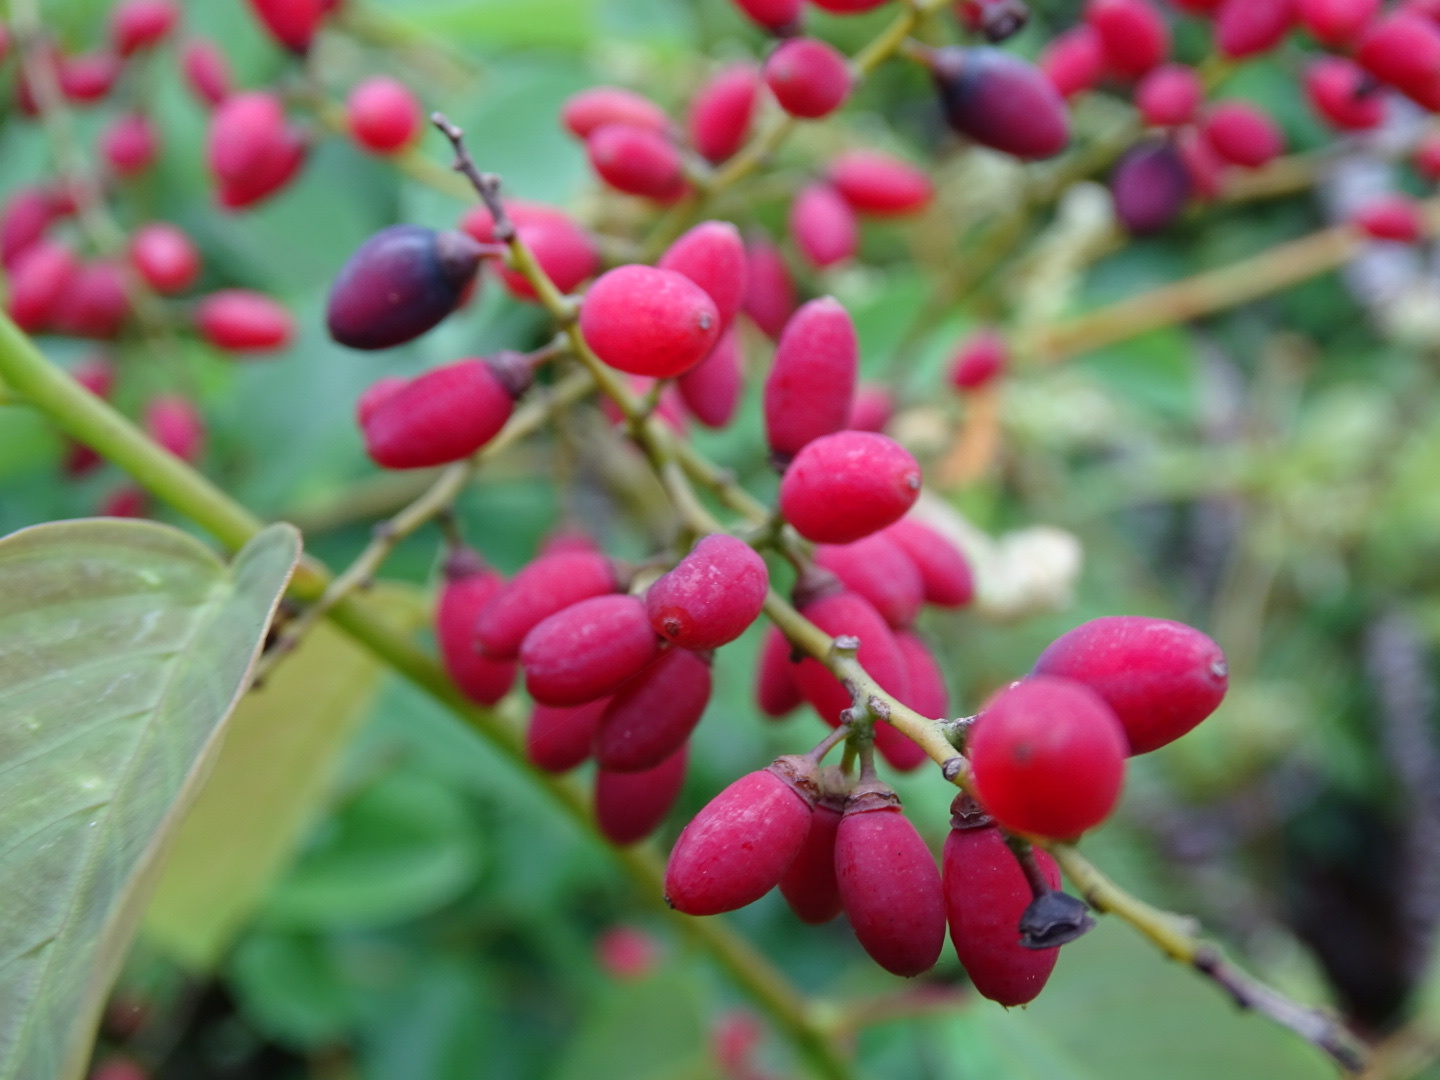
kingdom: Plantae
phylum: Tracheophyta
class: Magnoliopsida
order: Rosales
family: Rhamnaceae
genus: Berchemia
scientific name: Berchemia floribunda
